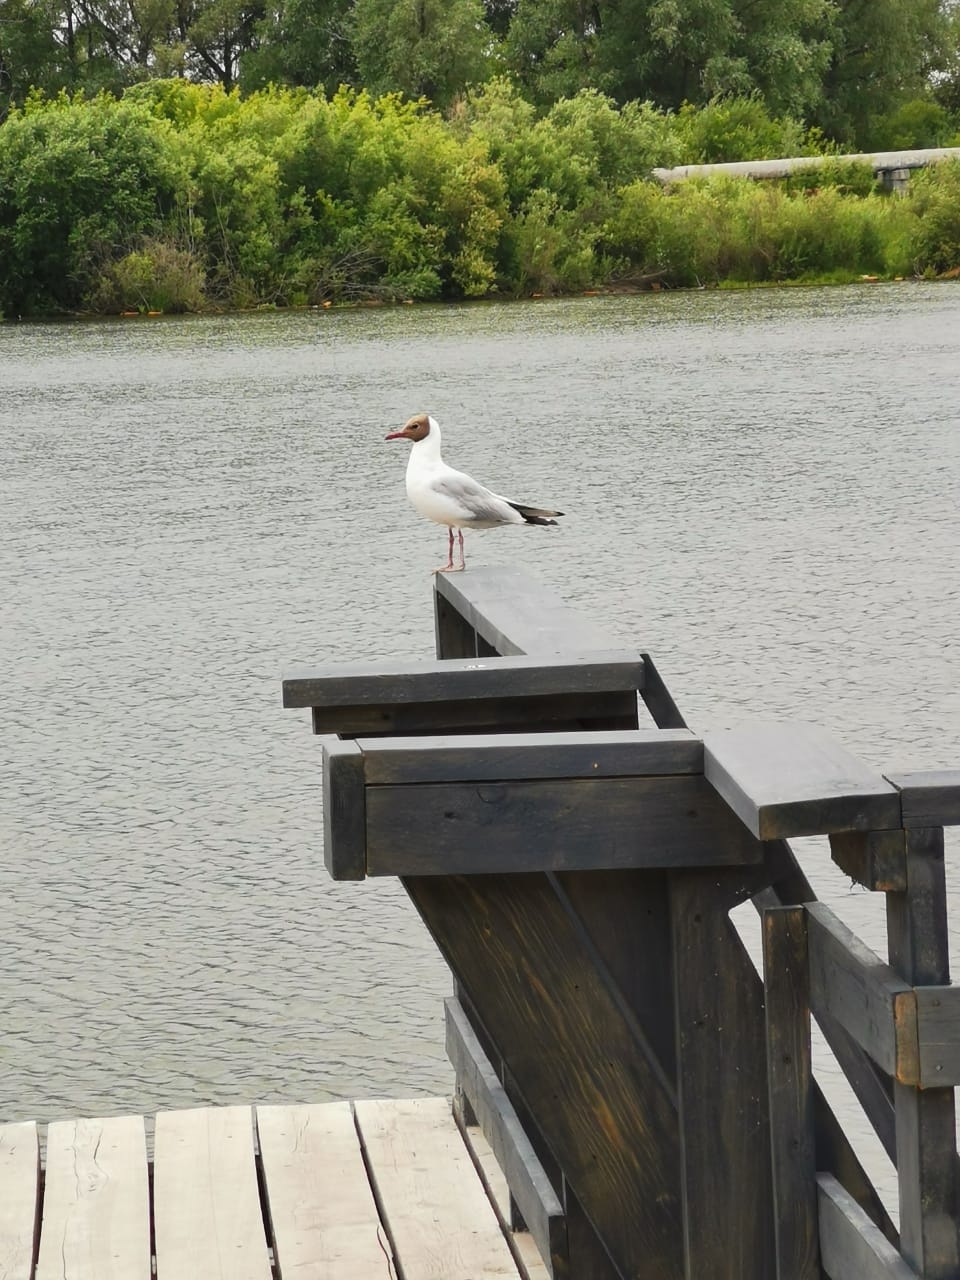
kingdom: Animalia
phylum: Chordata
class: Aves
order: Charadriiformes
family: Laridae
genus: Chroicocephalus
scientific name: Chroicocephalus ridibundus
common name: Black-headed gull
